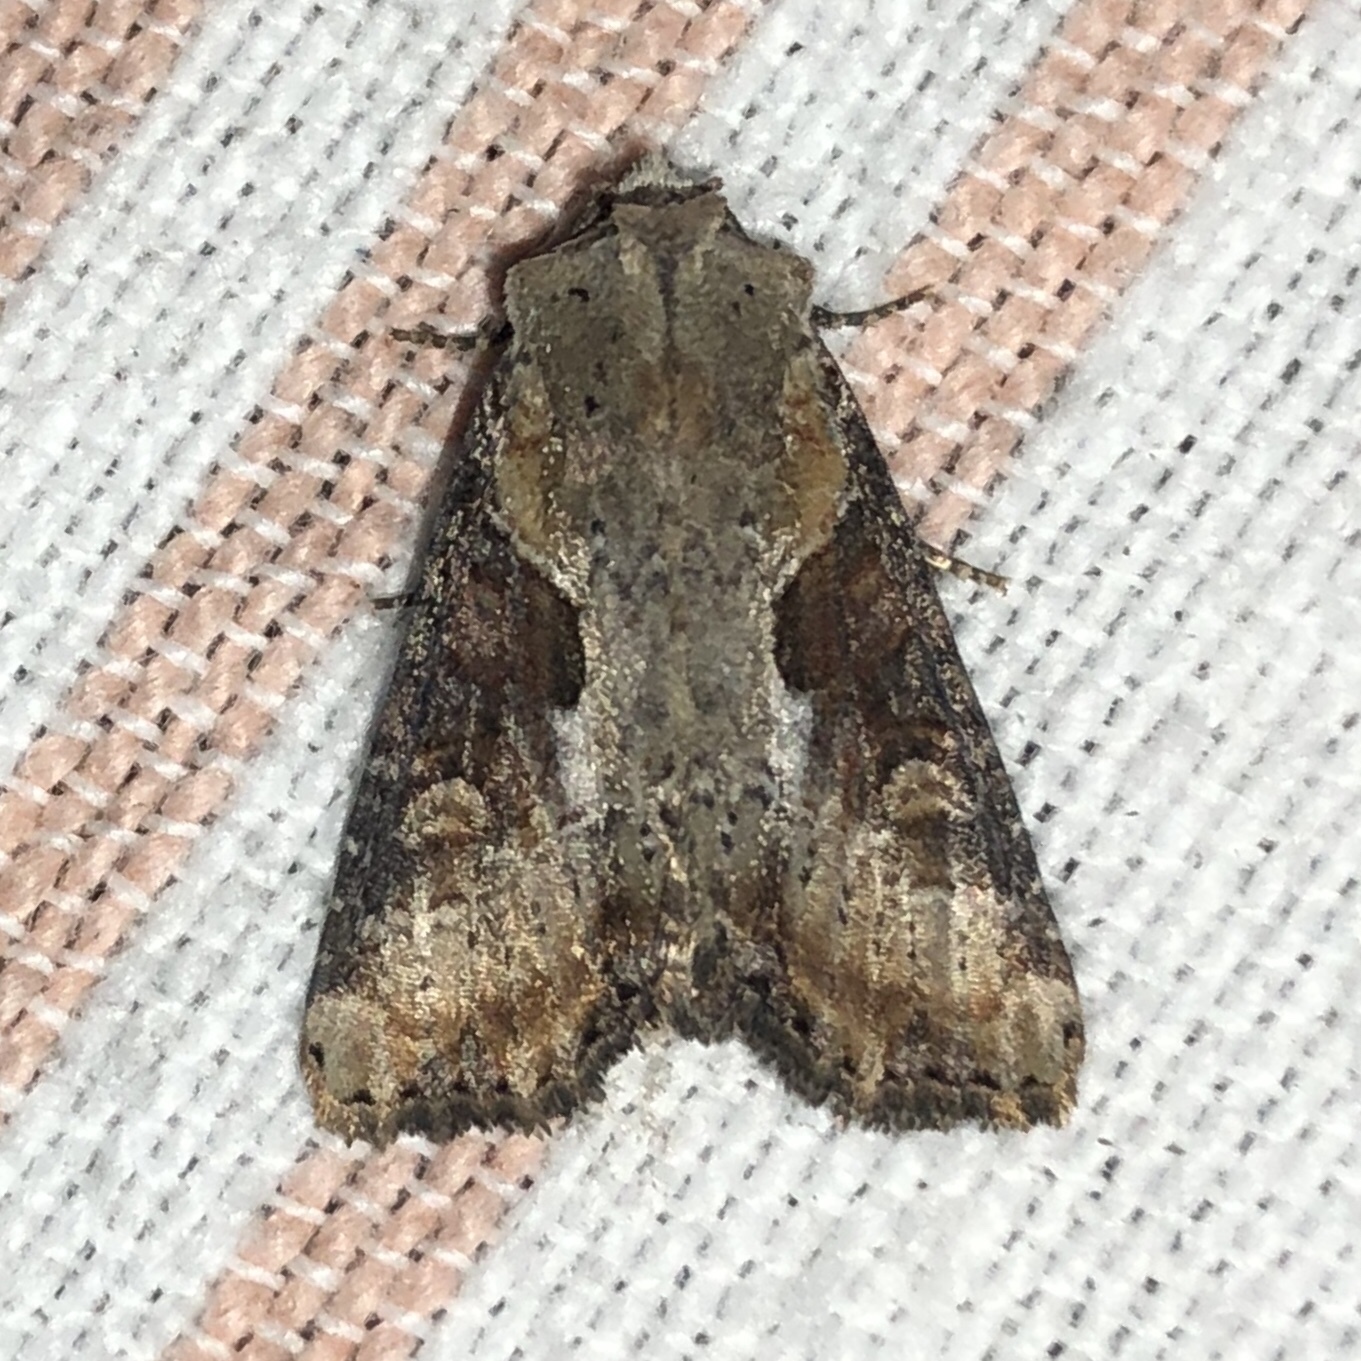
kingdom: Animalia
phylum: Arthropoda
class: Insecta
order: Lepidoptera
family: Noctuidae
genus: Lateroligia
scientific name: Lateroligia ophiogramma
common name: Double lobed
